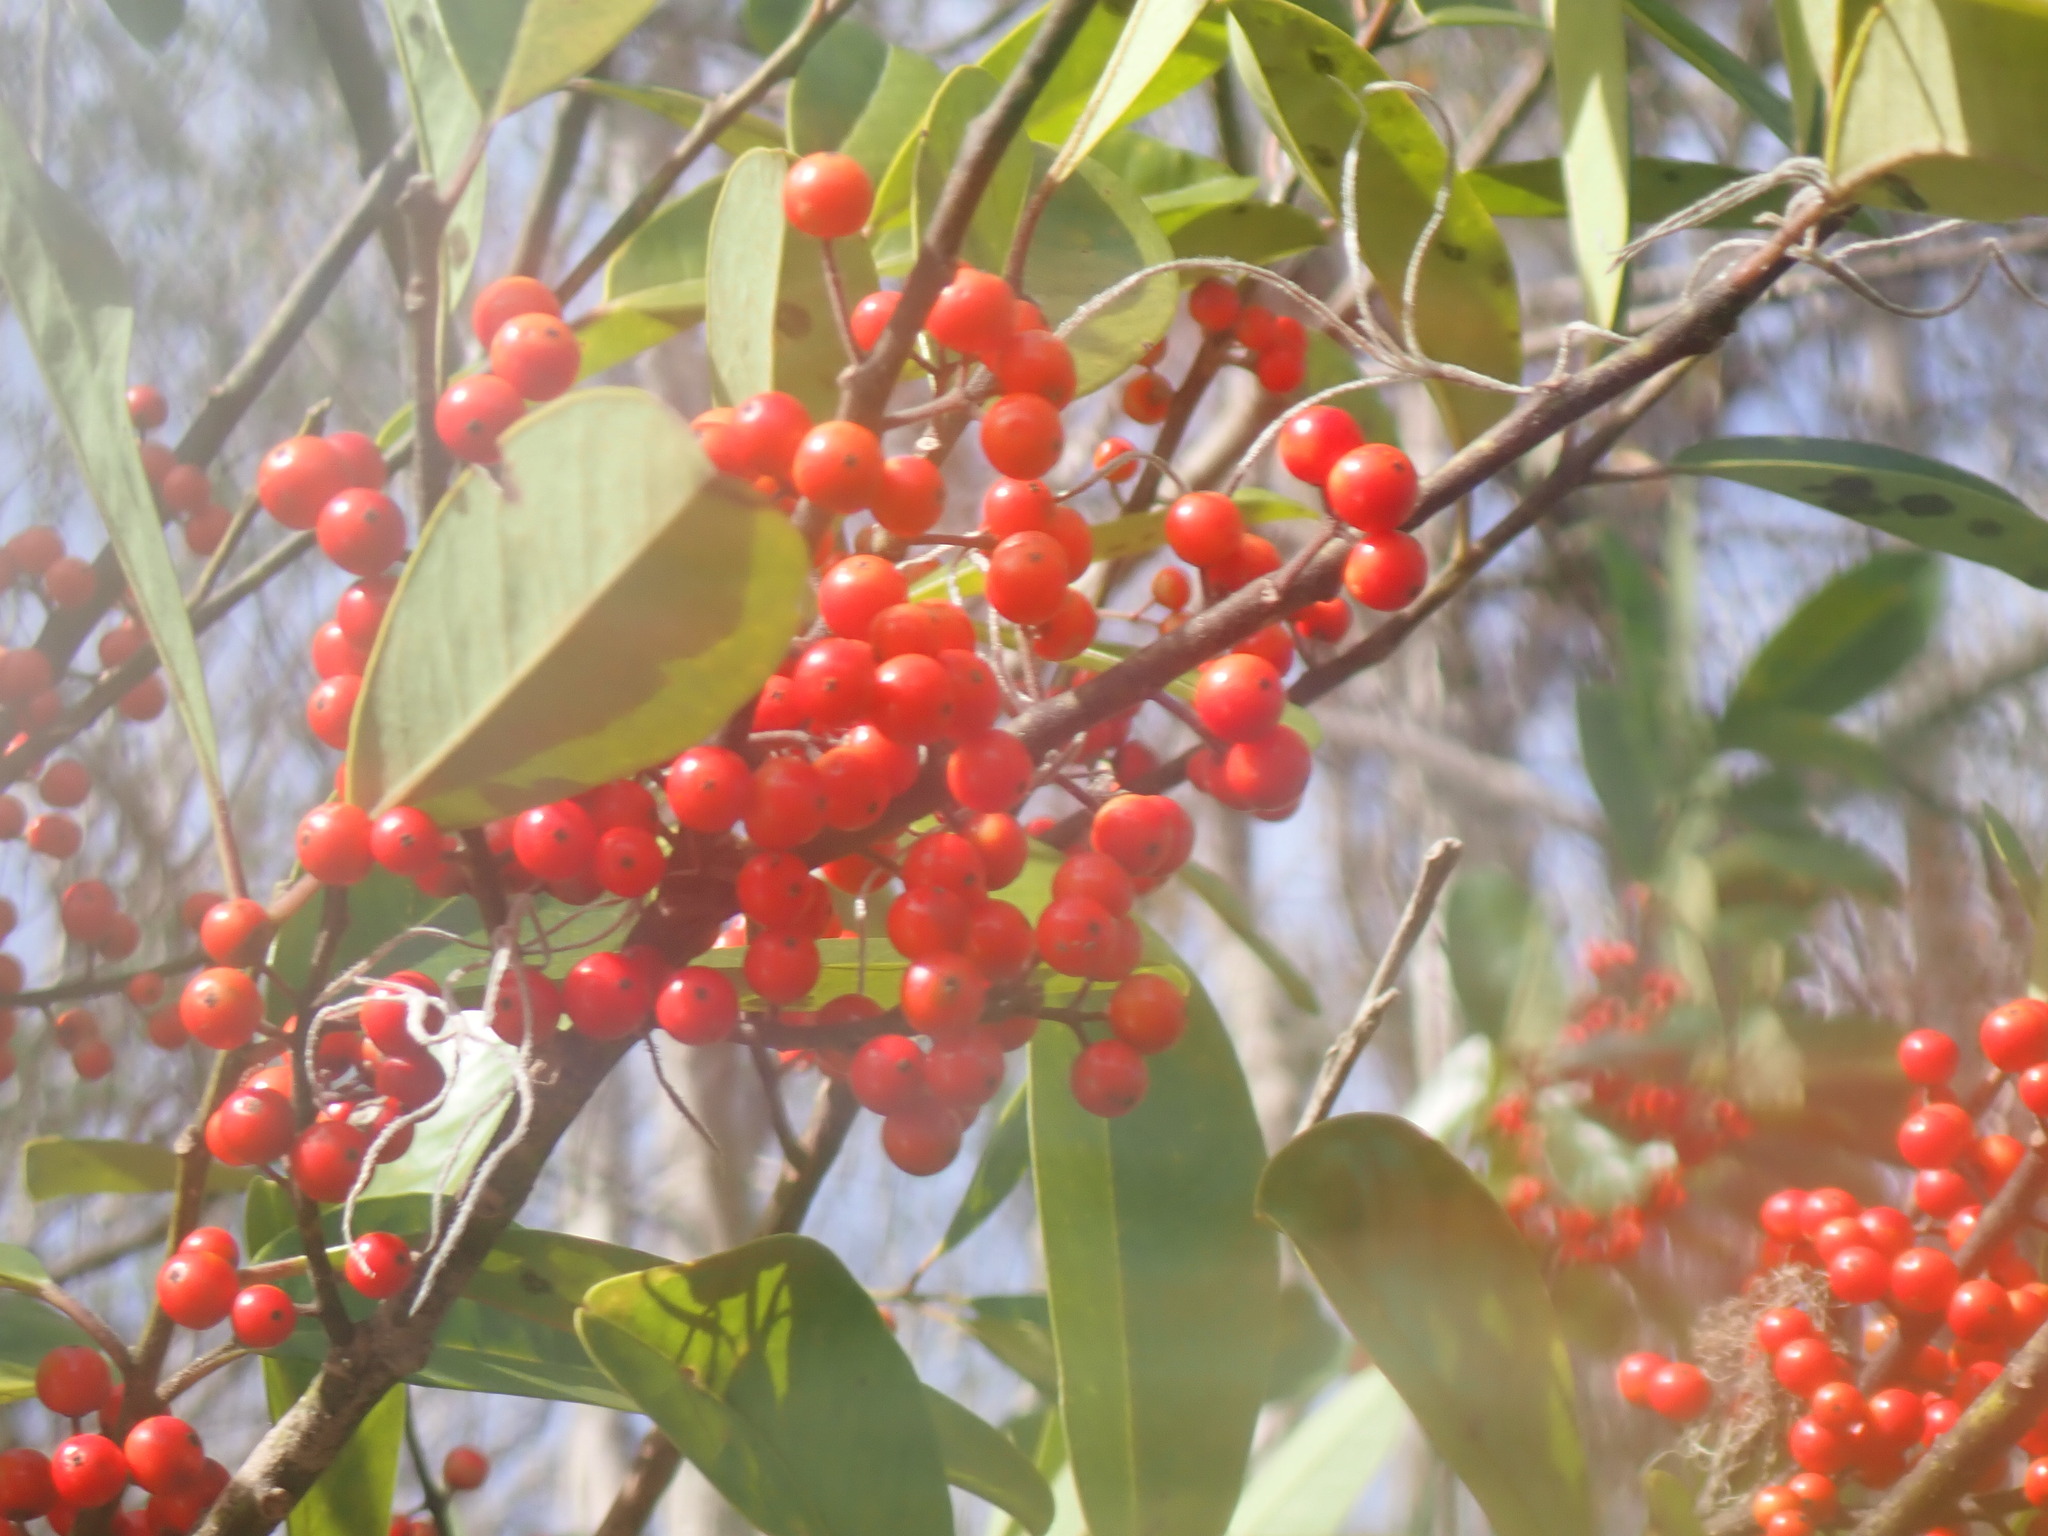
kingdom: Plantae
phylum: Tracheophyta
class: Magnoliopsida
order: Aquifoliales
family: Aquifoliaceae
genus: Ilex
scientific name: Ilex cassine
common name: Dahoon
